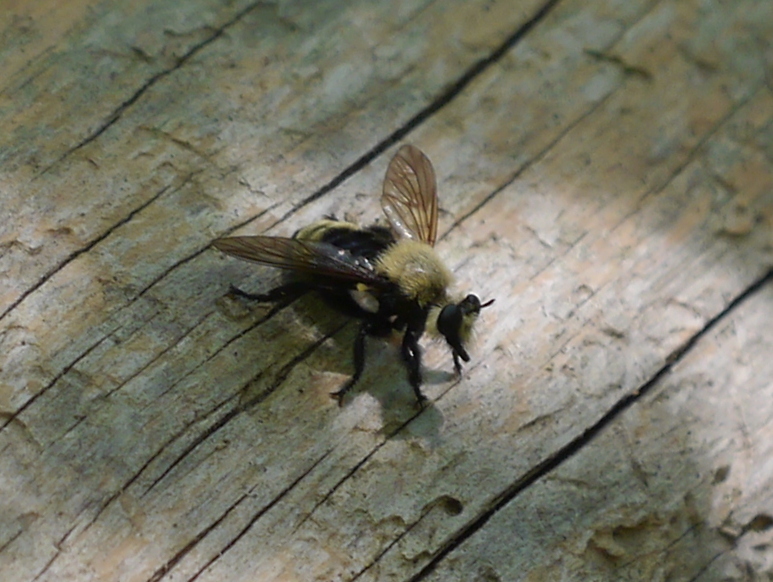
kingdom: Animalia
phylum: Arthropoda
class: Insecta
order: Diptera
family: Asilidae
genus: Laphria
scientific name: Laphria posticata
